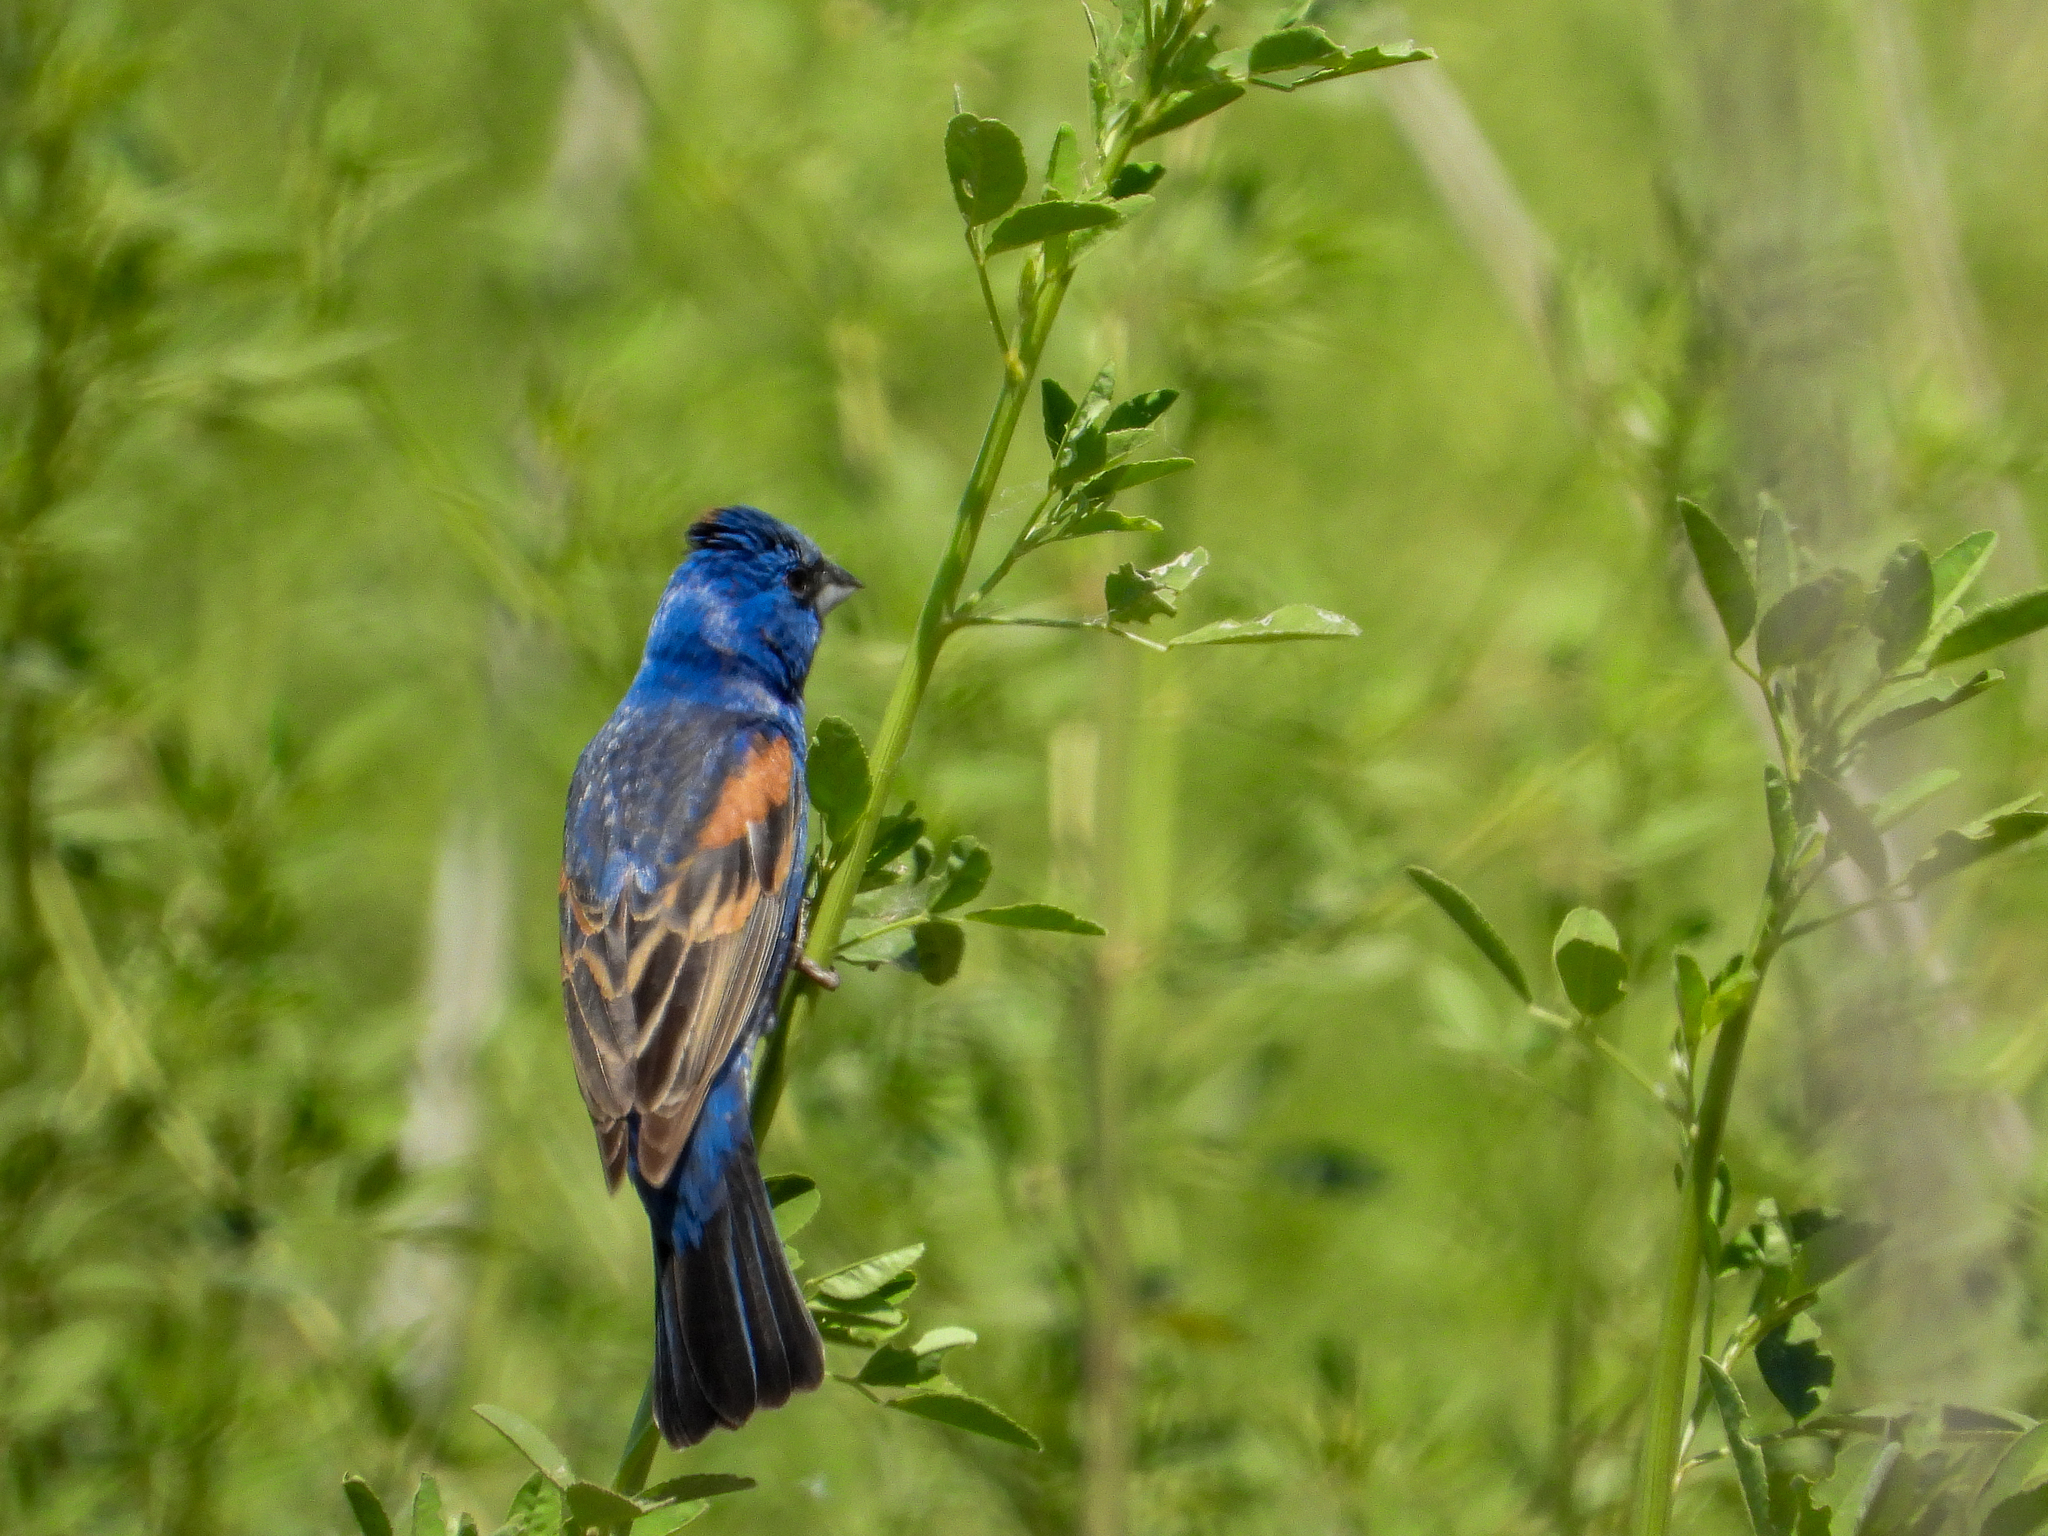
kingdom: Animalia
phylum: Chordata
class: Aves
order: Passeriformes
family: Cardinalidae
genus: Passerina
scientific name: Passerina caerulea
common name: Blue grosbeak
